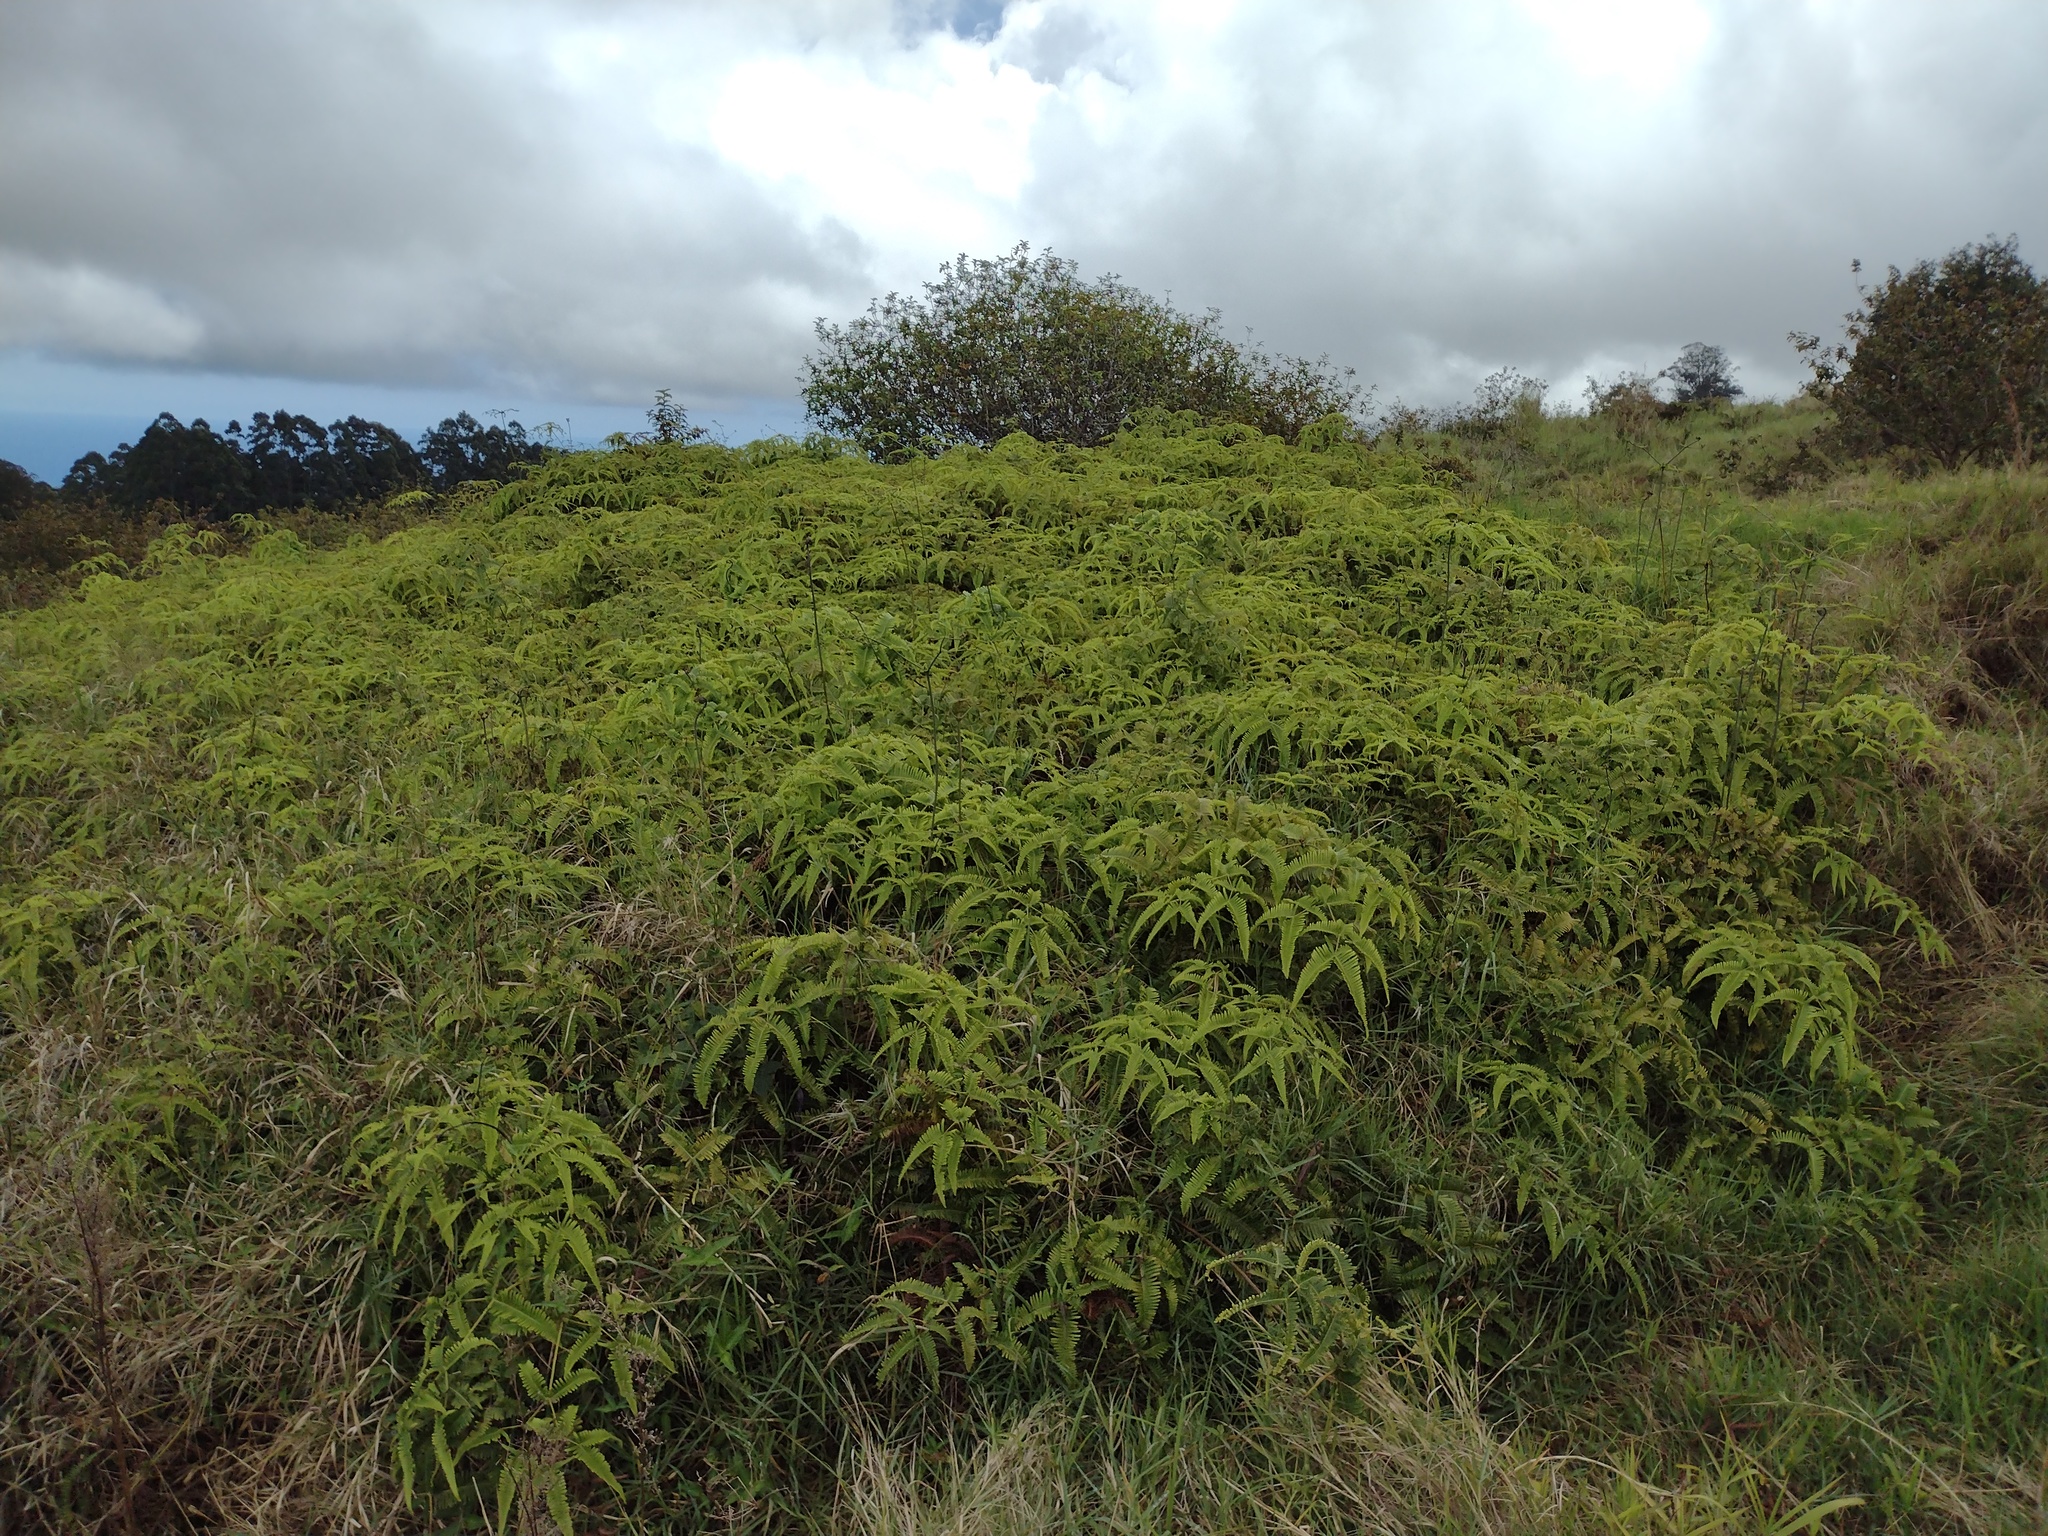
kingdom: Plantae
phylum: Tracheophyta
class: Polypodiopsida
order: Gleicheniales
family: Gleicheniaceae
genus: Dicranopteris
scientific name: Dicranopteris linearis
